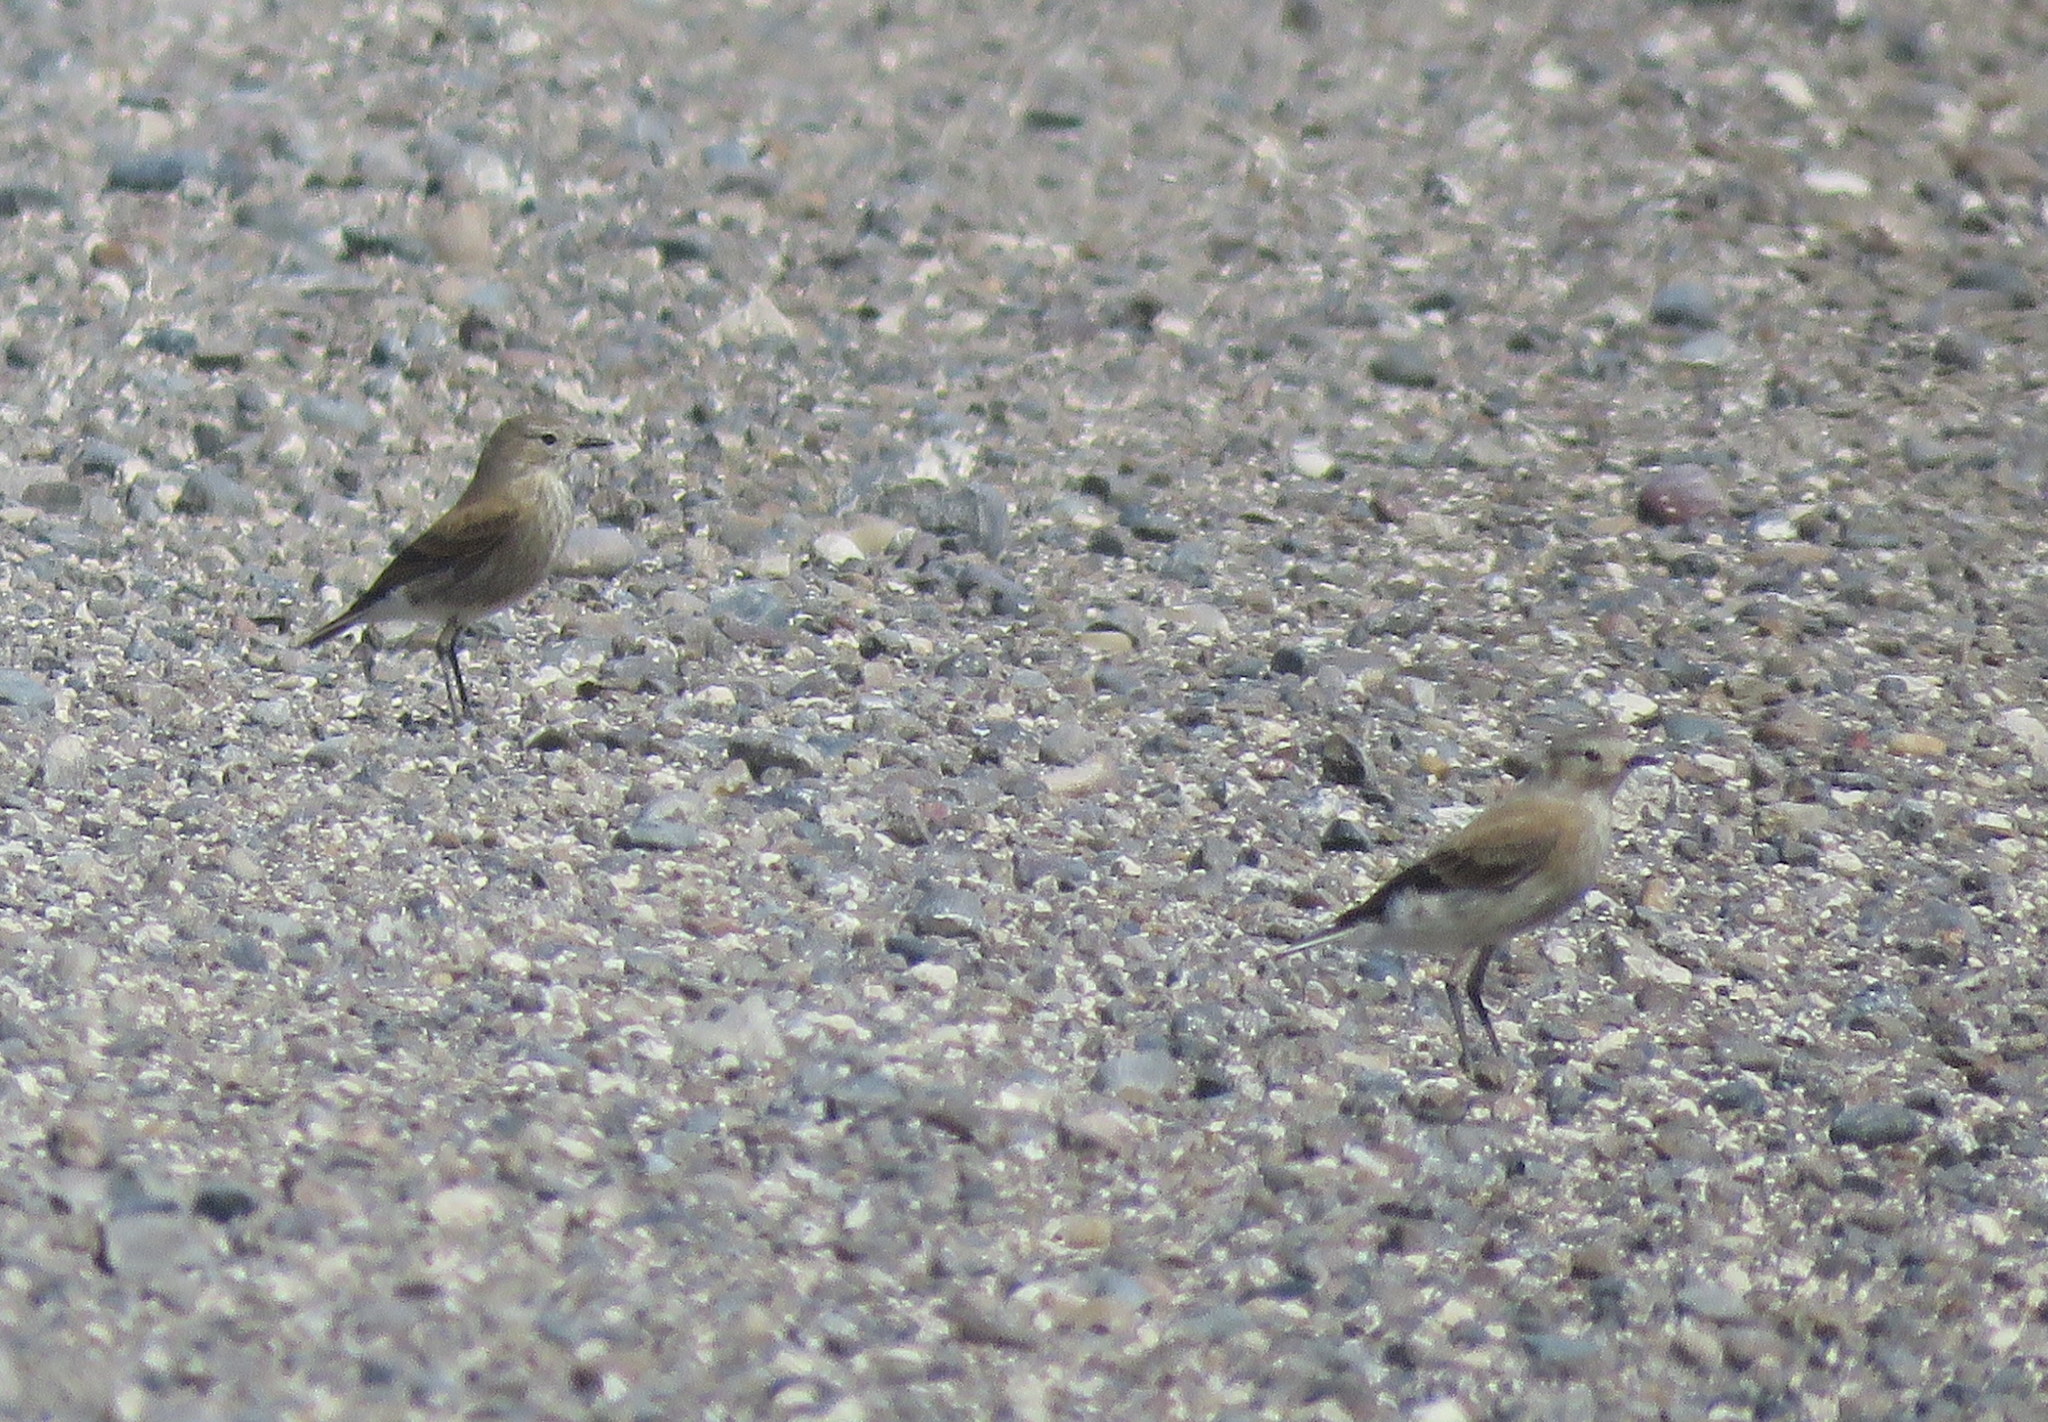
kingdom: Animalia
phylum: Chordata
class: Aves
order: Passeriformes
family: Tyrannidae
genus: Lessonia
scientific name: Lessonia rufa
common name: Austral negrito
